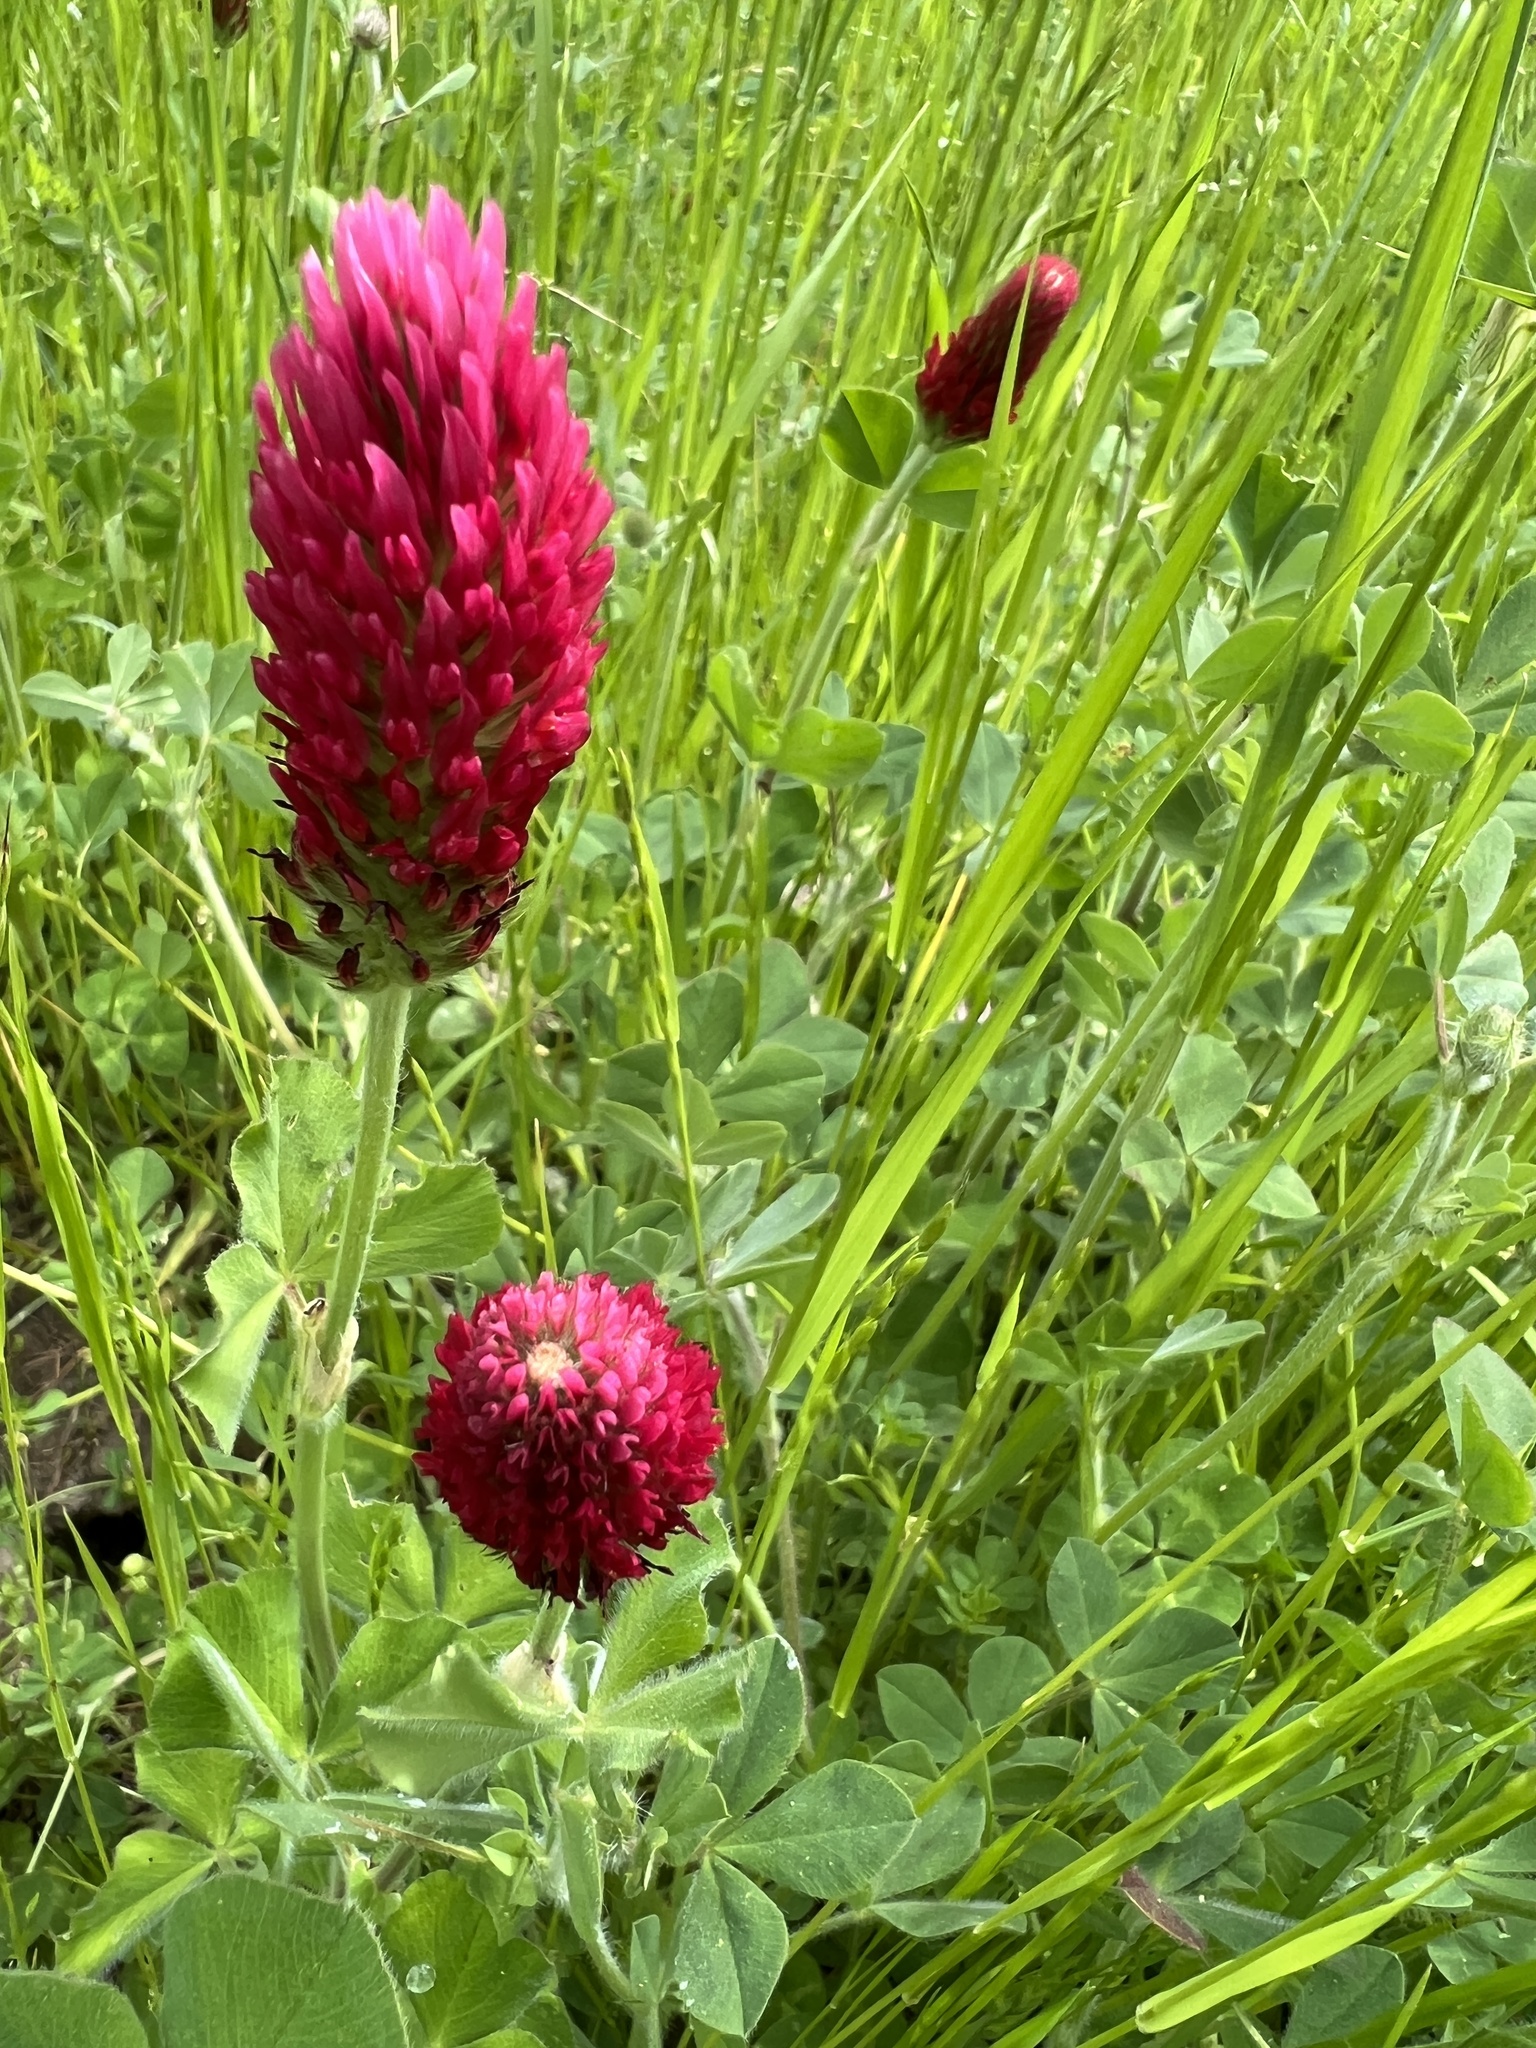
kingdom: Plantae
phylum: Tracheophyta
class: Magnoliopsida
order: Fabales
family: Fabaceae
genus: Trifolium
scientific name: Trifolium incarnatum
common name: Crimson clover
